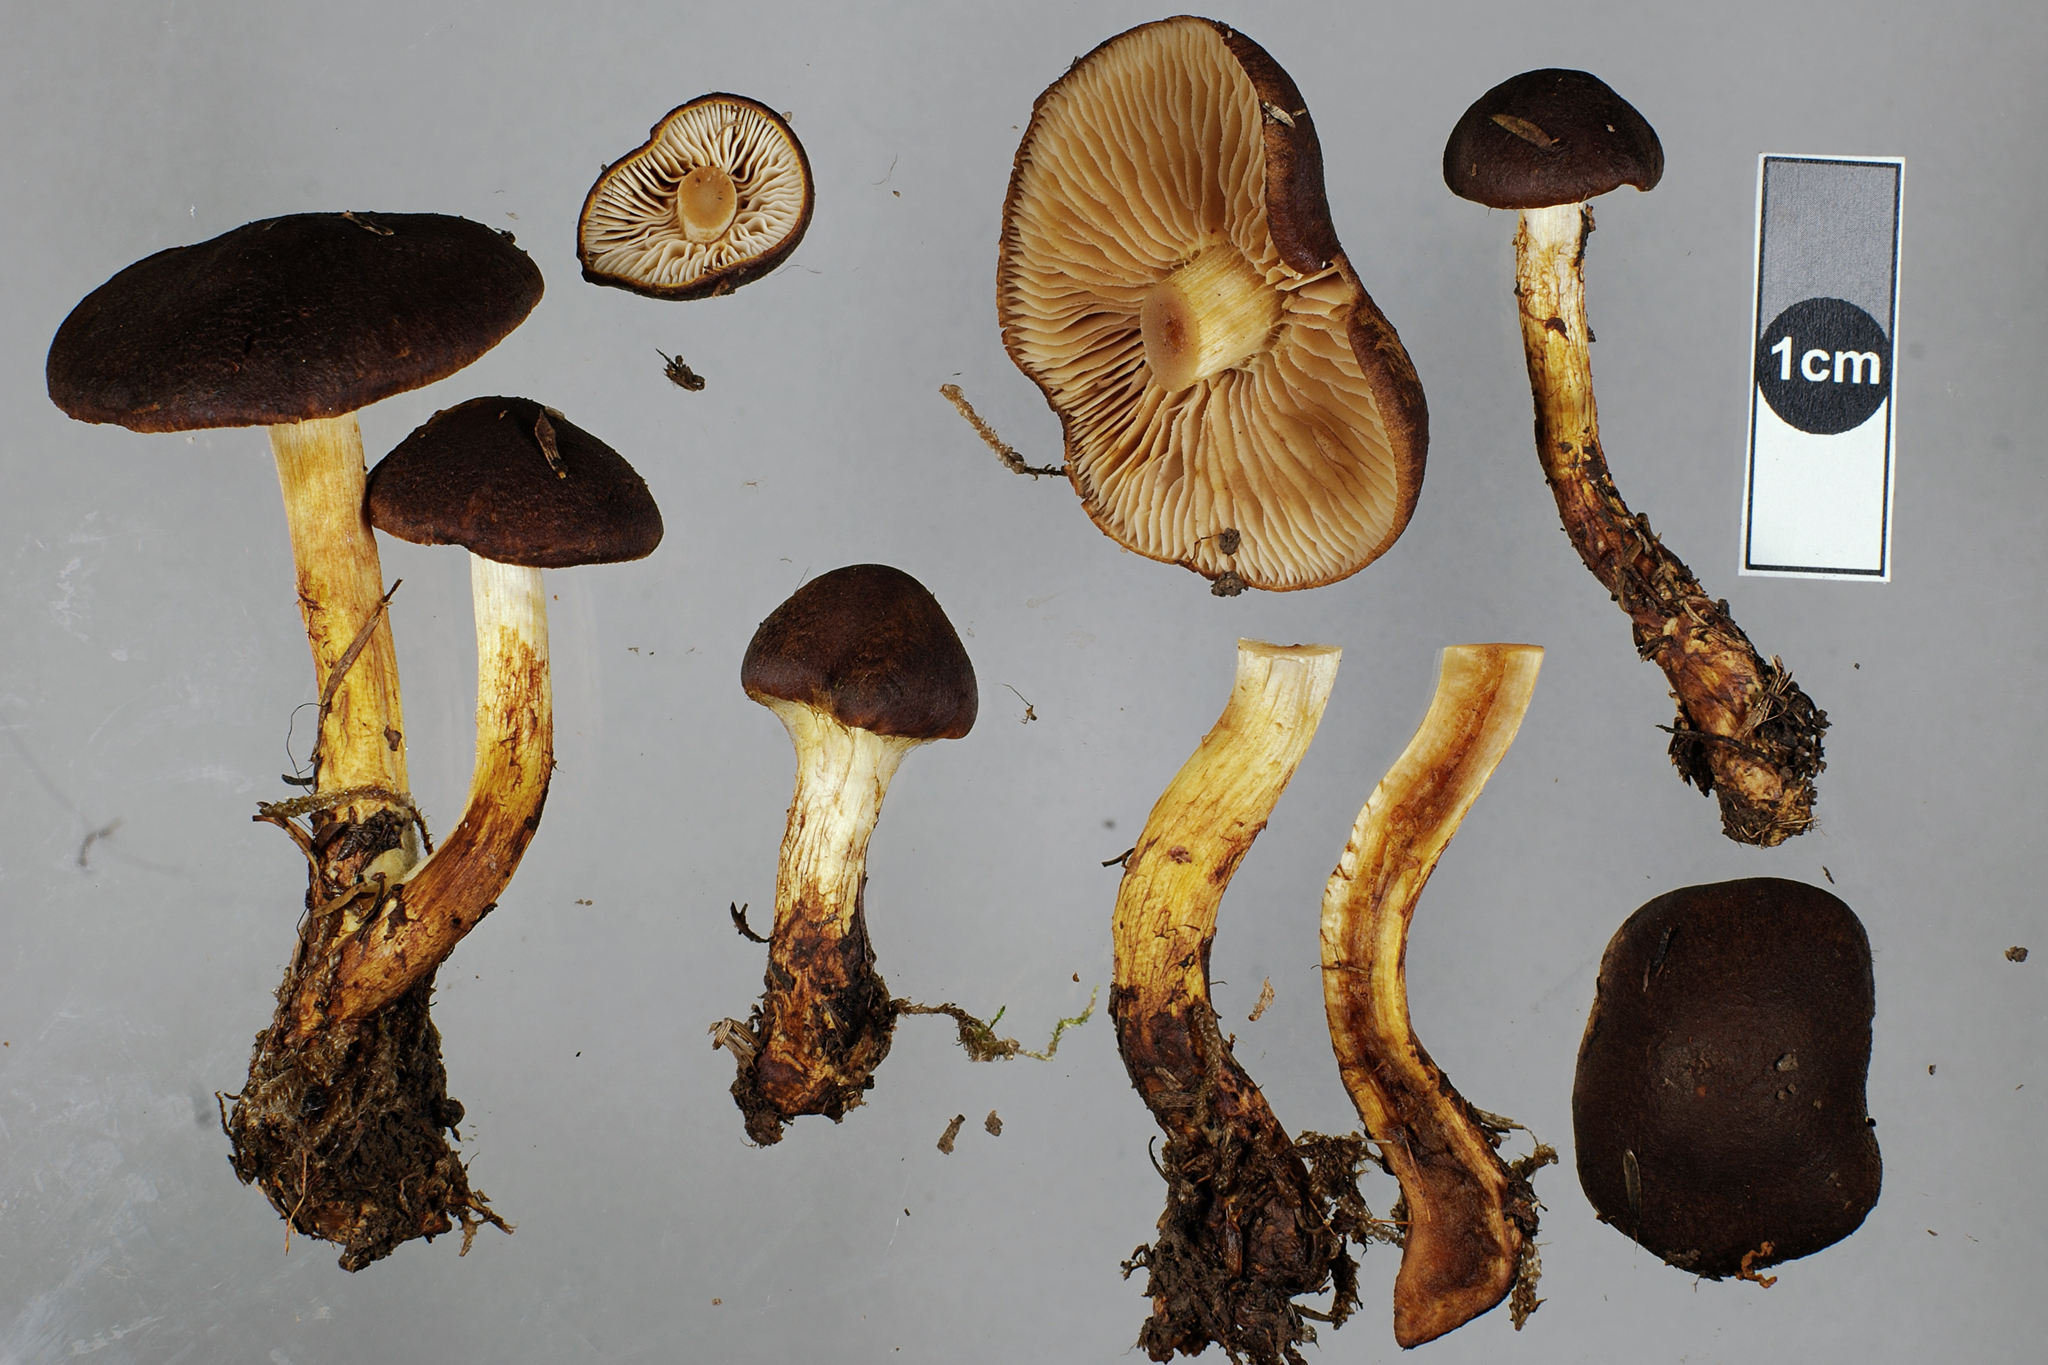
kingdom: Fungi
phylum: Basidiomycota
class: Agaricomycetes
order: Agaricales
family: Cortinariaceae
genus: Cortinarius
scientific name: Cortinarius pholiotellus
